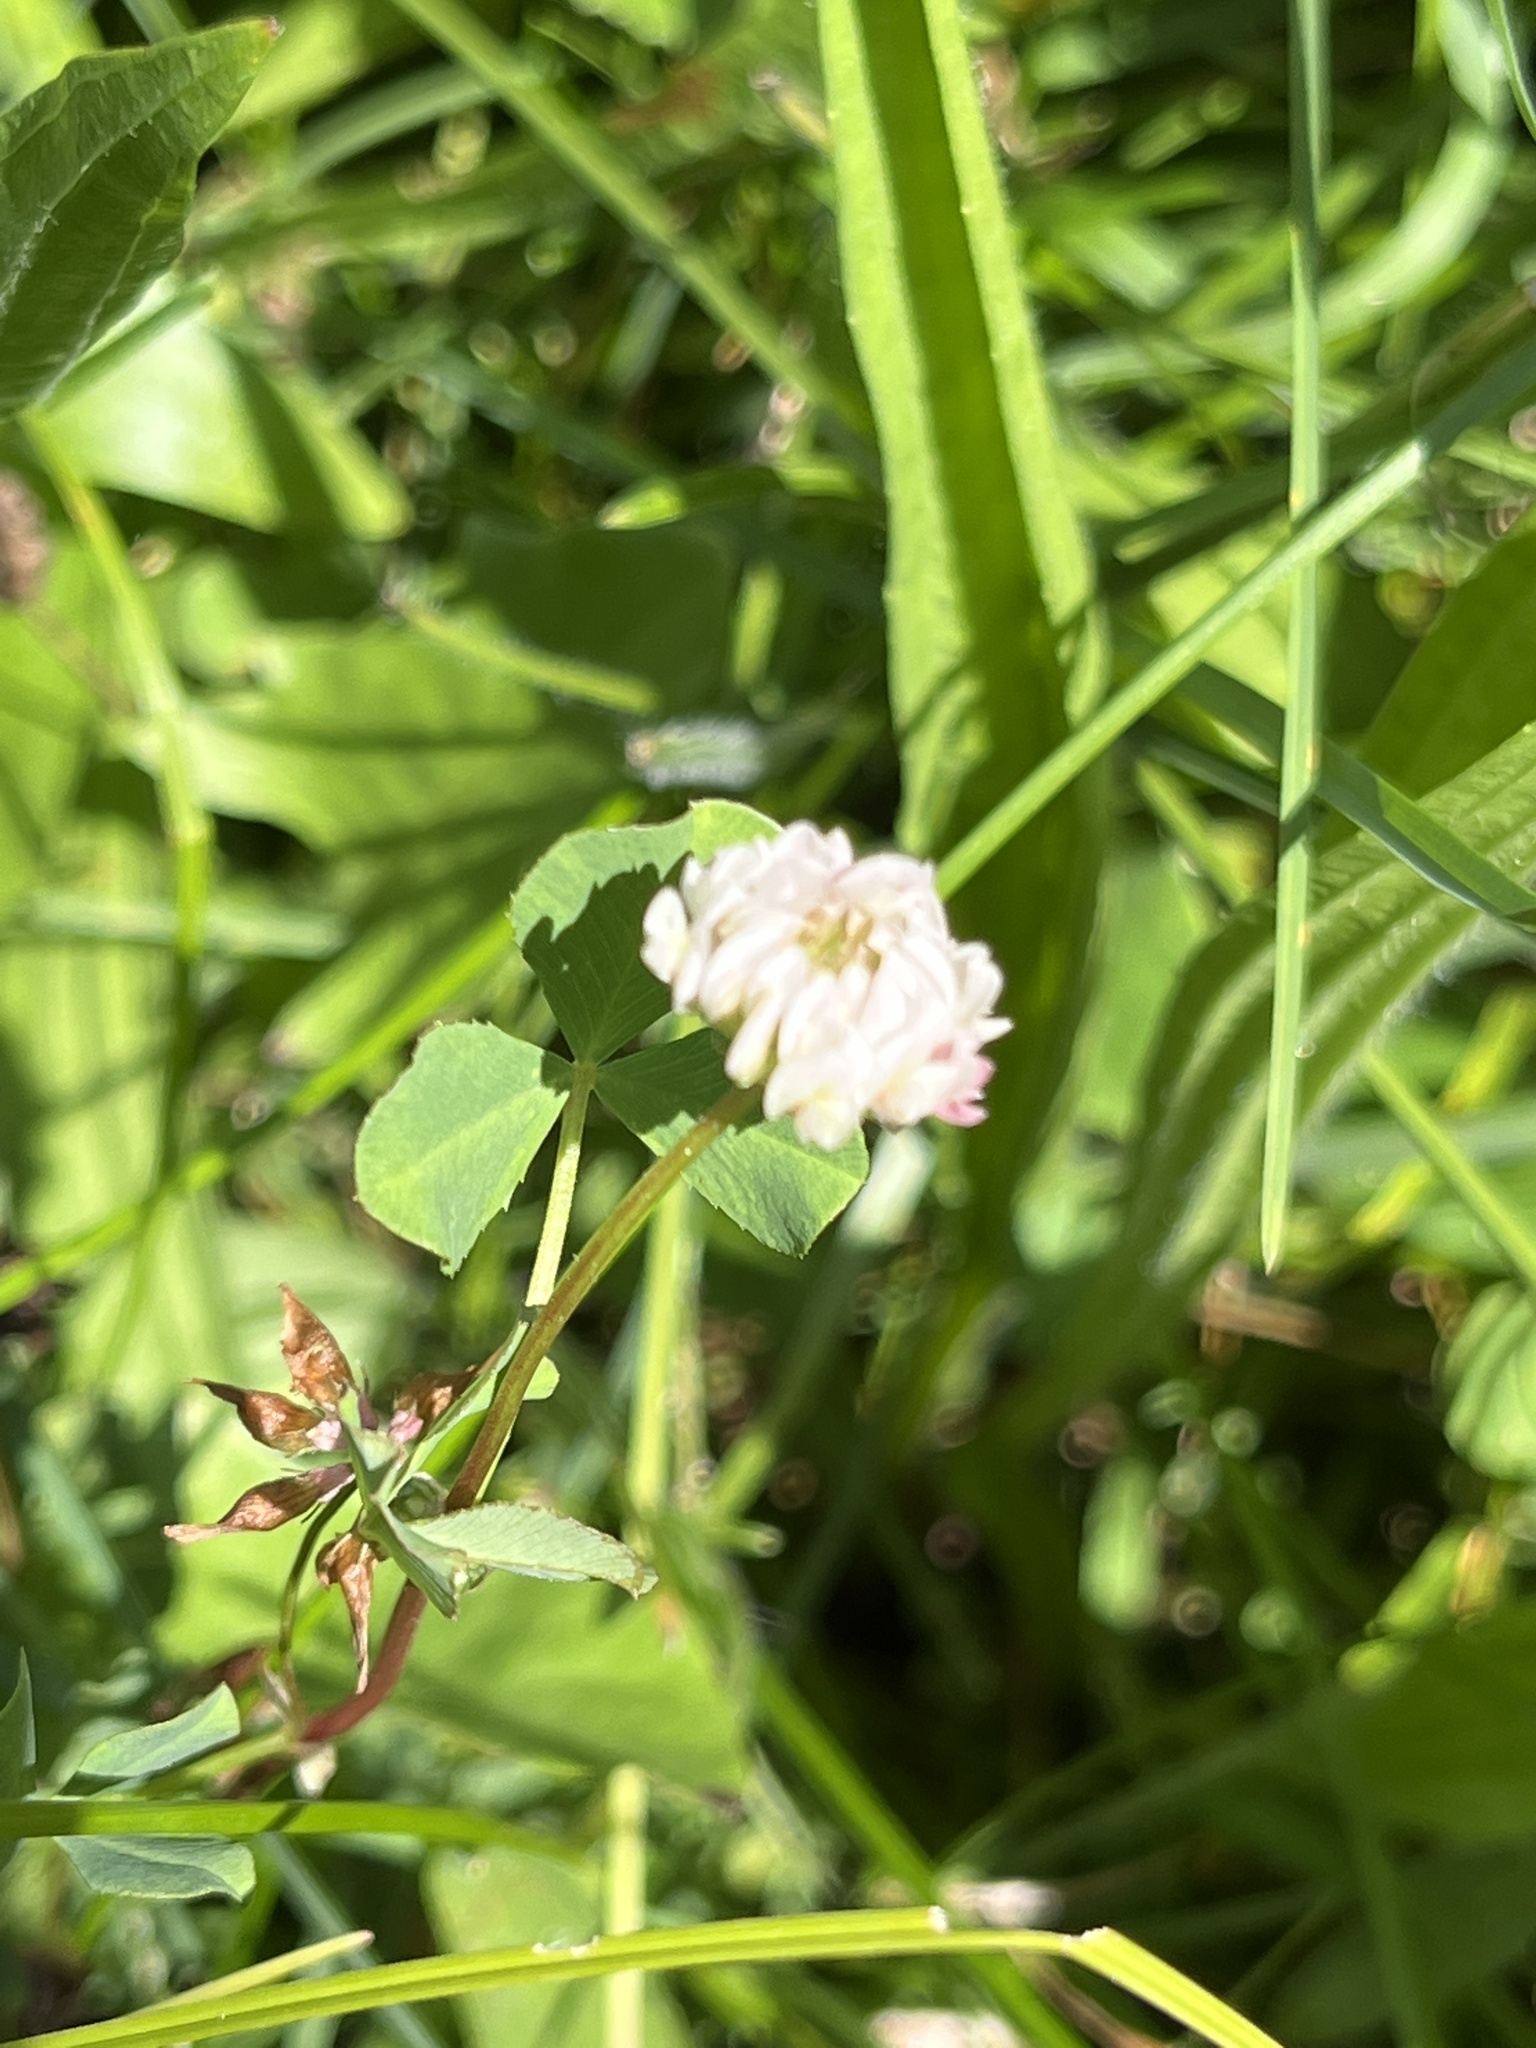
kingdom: Plantae
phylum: Tracheophyta
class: Magnoliopsida
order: Fabales
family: Fabaceae
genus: Trifolium
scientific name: Trifolium repens
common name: White clover
